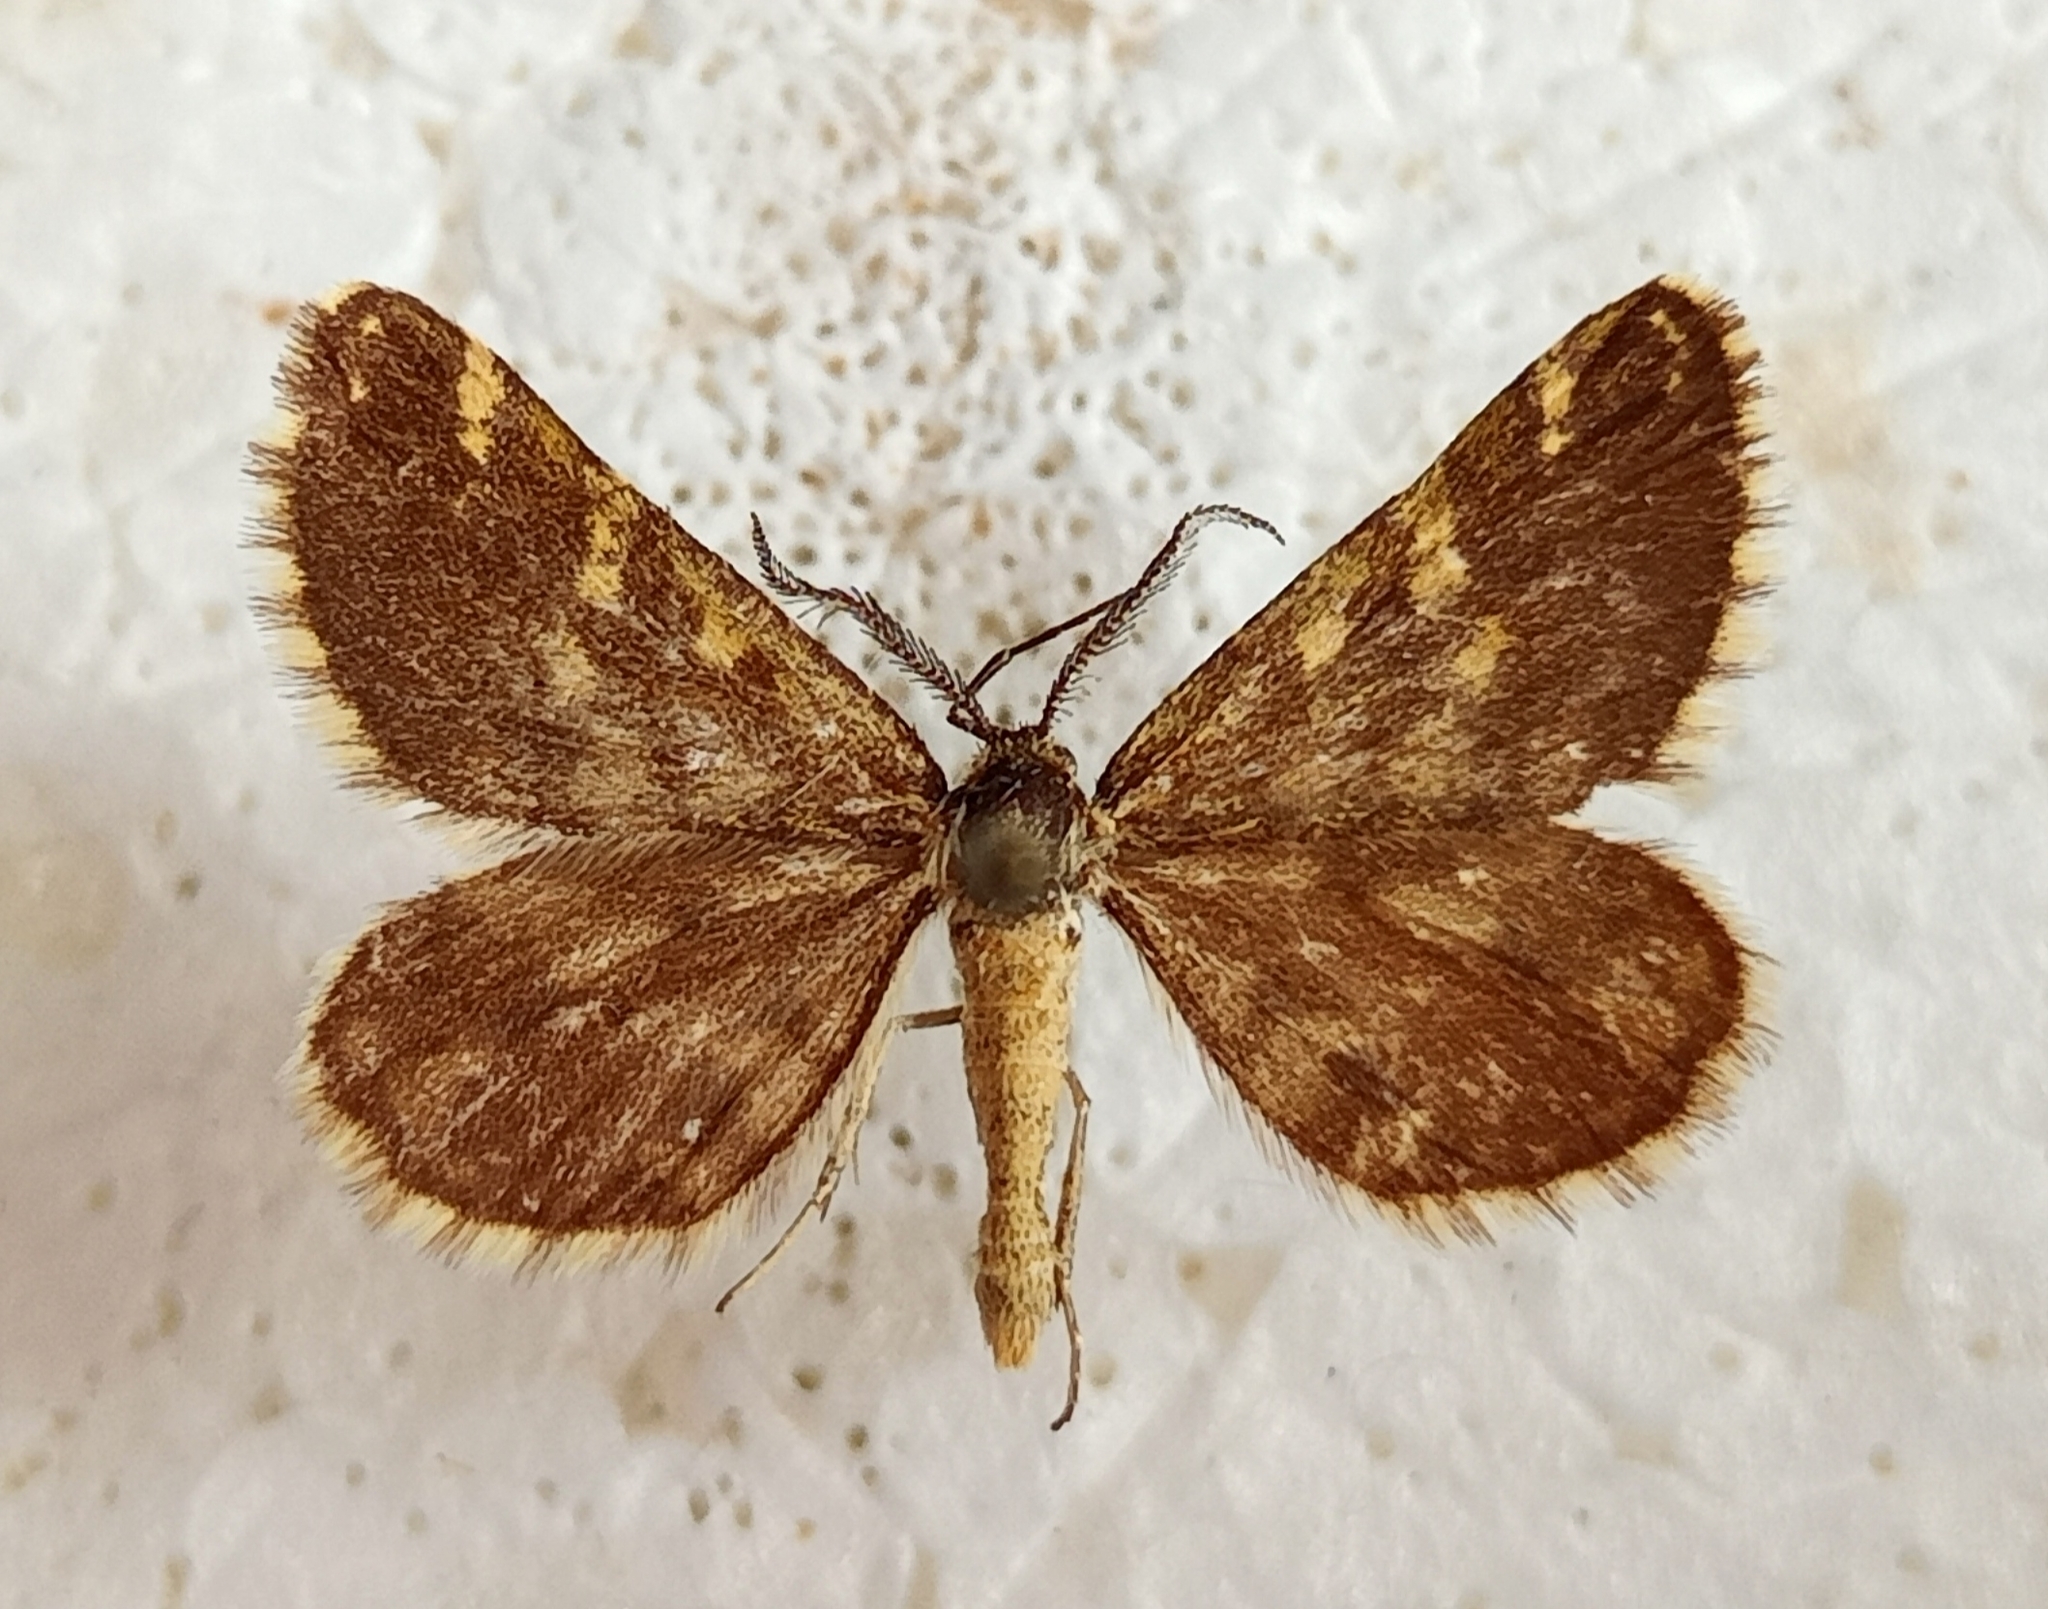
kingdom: Animalia
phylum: Arthropoda
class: Insecta
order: Lepidoptera
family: Geometridae
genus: Narraga
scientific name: Narraga fasciolaria
